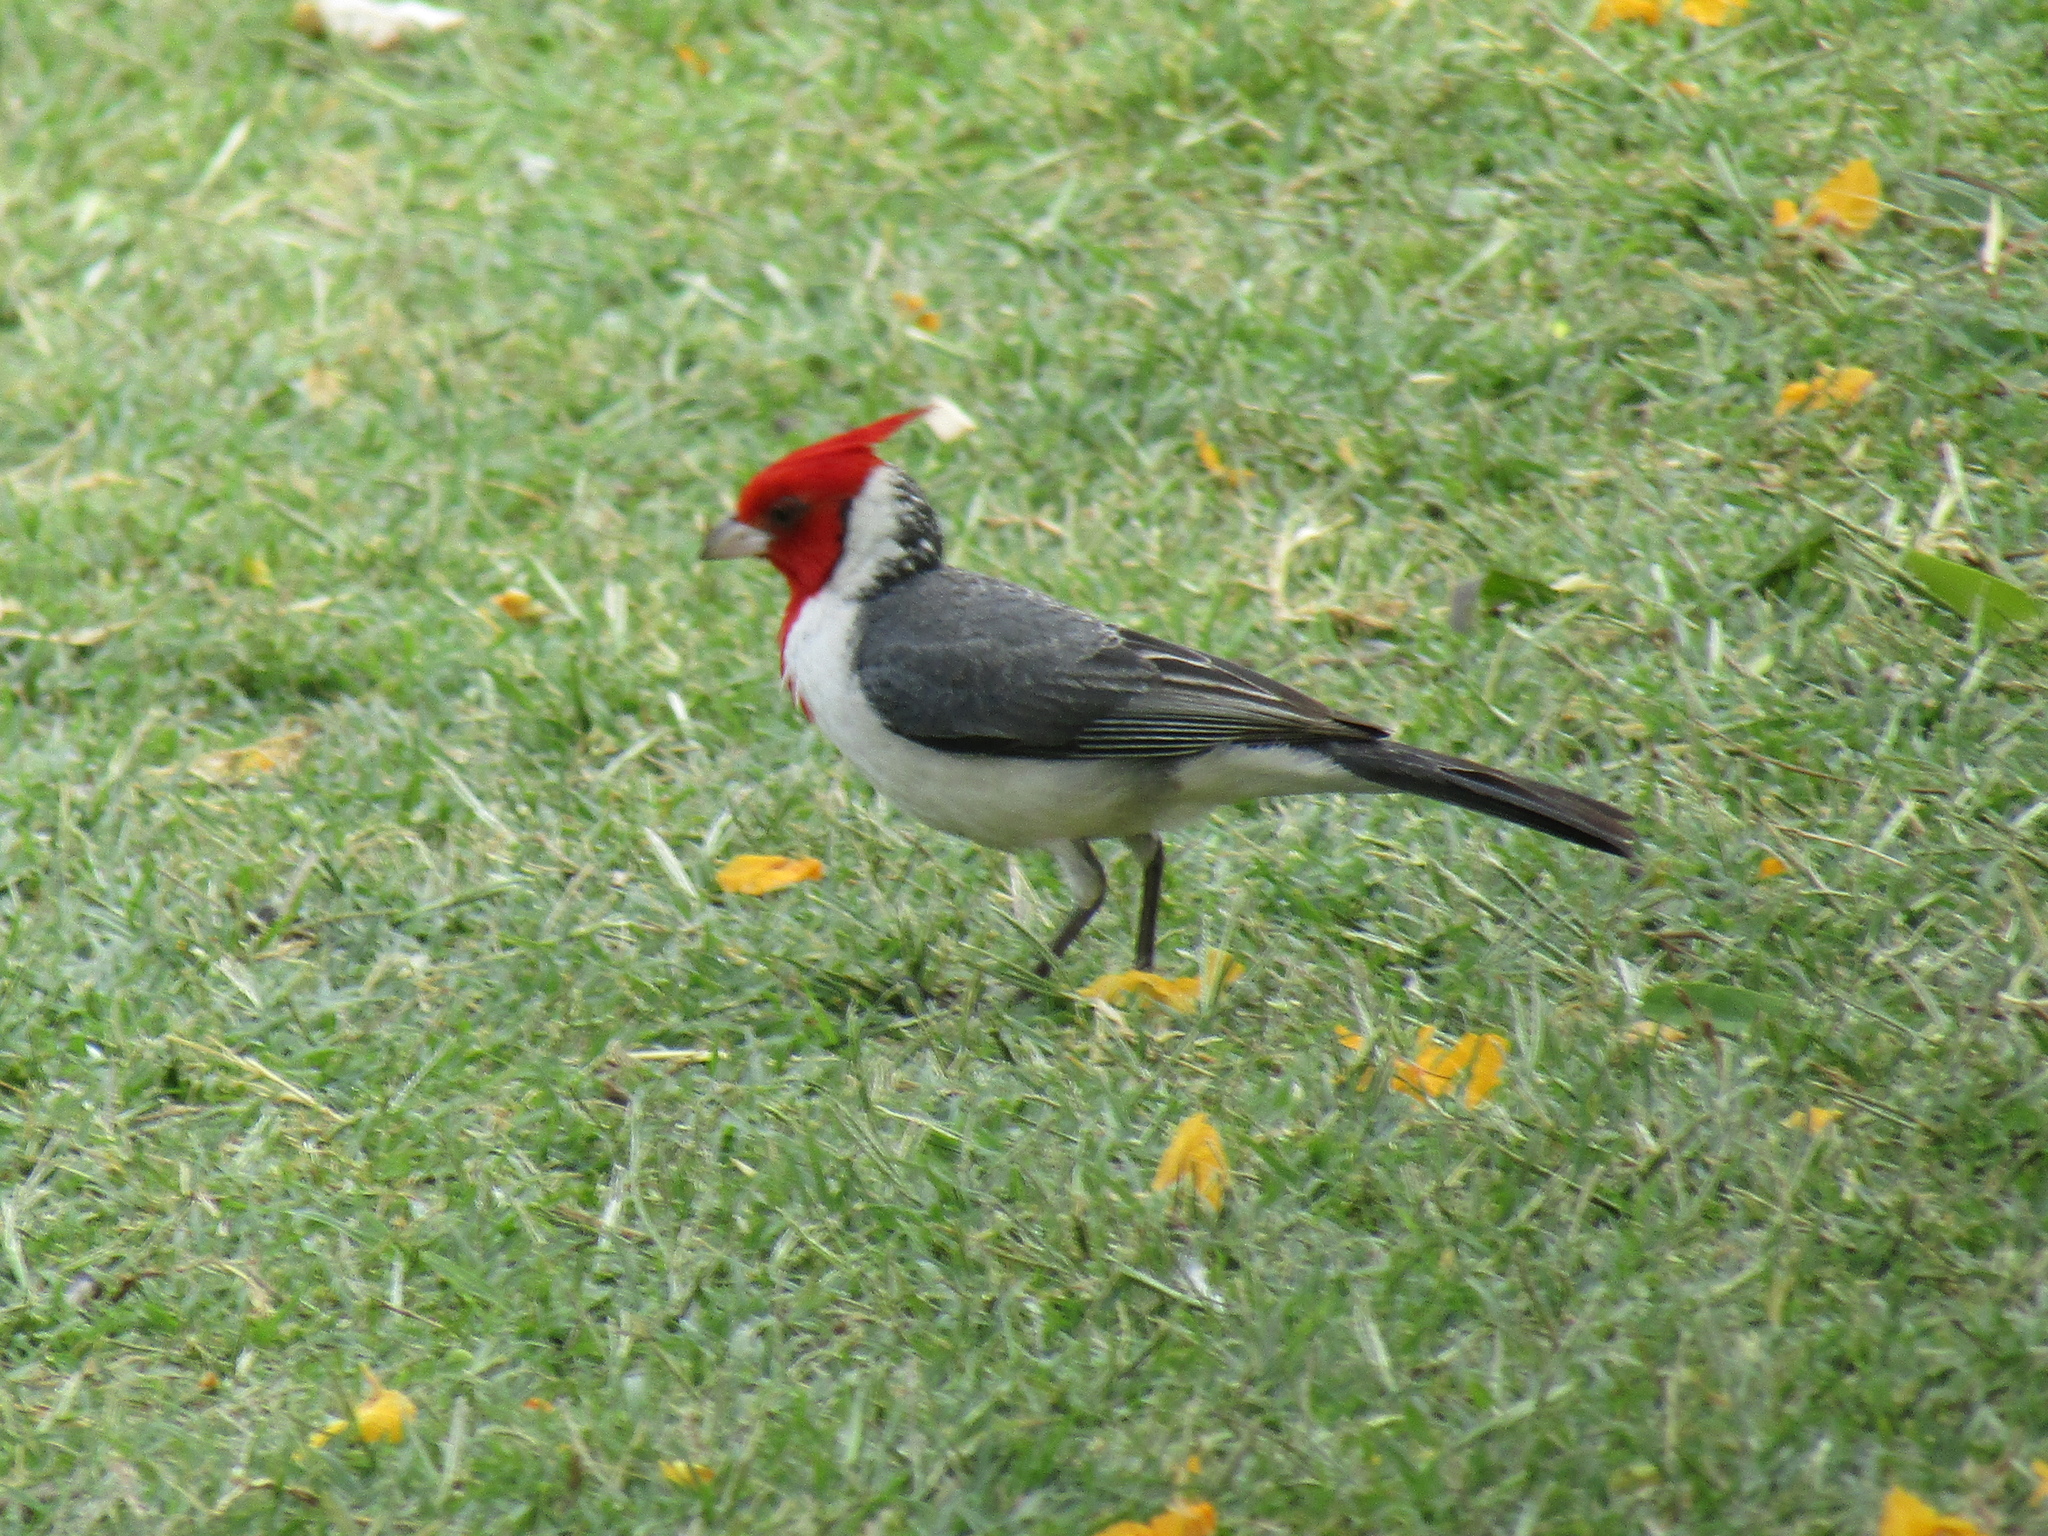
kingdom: Animalia
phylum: Chordata
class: Aves
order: Passeriformes
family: Thraupidae
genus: Paroaria
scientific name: Paroaria coronata
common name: Red-crested cardinal
